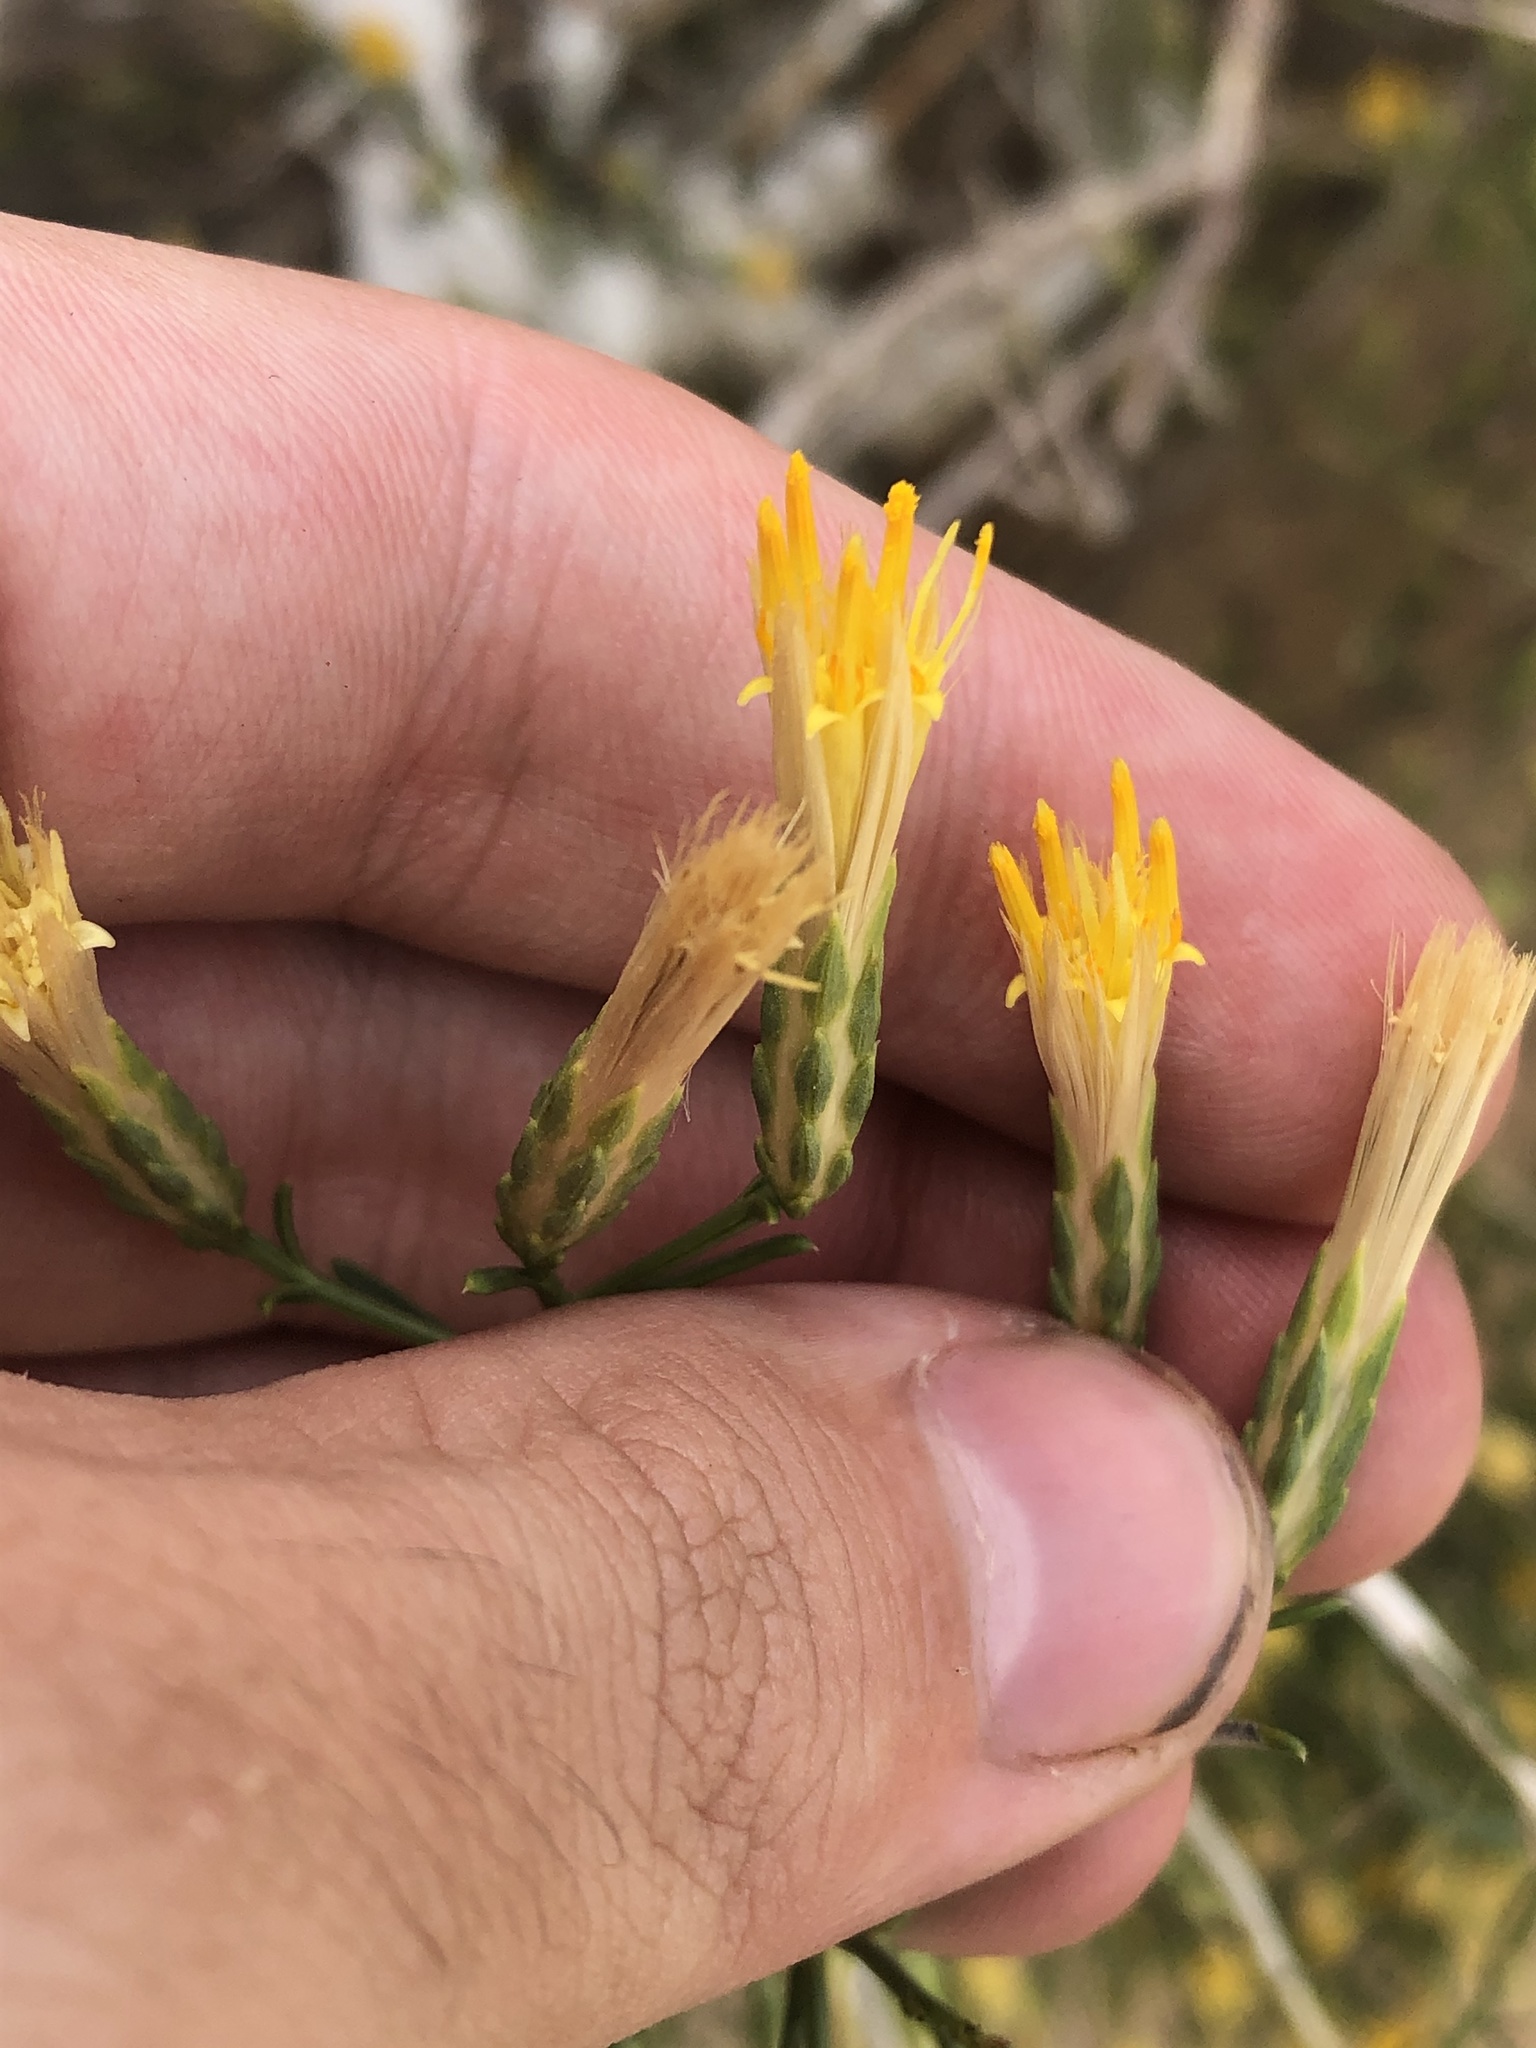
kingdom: Plantae
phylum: Tracheophyta
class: Magnoliopsida
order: Asterales
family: Asteraceae
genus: Lorandersonia
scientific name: Lorandersonia pulchella
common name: Southwestern rabbitbrush
